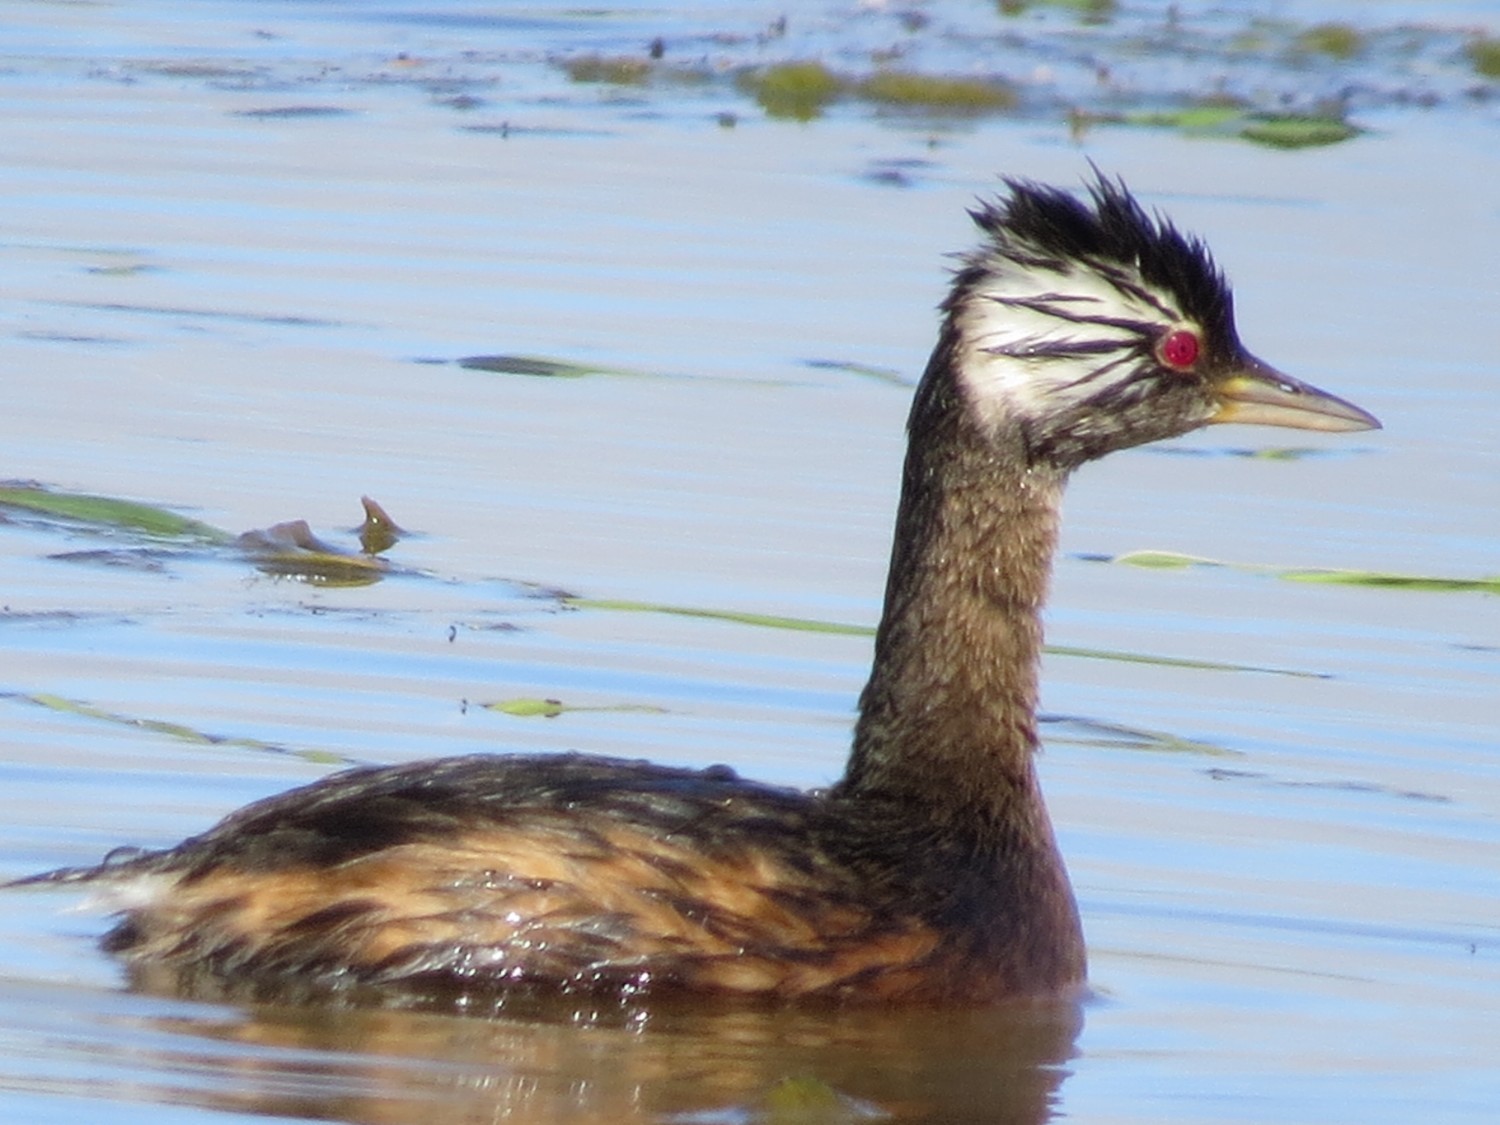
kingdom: Animalia
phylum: Chordata
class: Aves
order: Podicipediformes
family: Podicipedidae
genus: Rollandia
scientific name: Rollandia rolland
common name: White-tufted grebe
